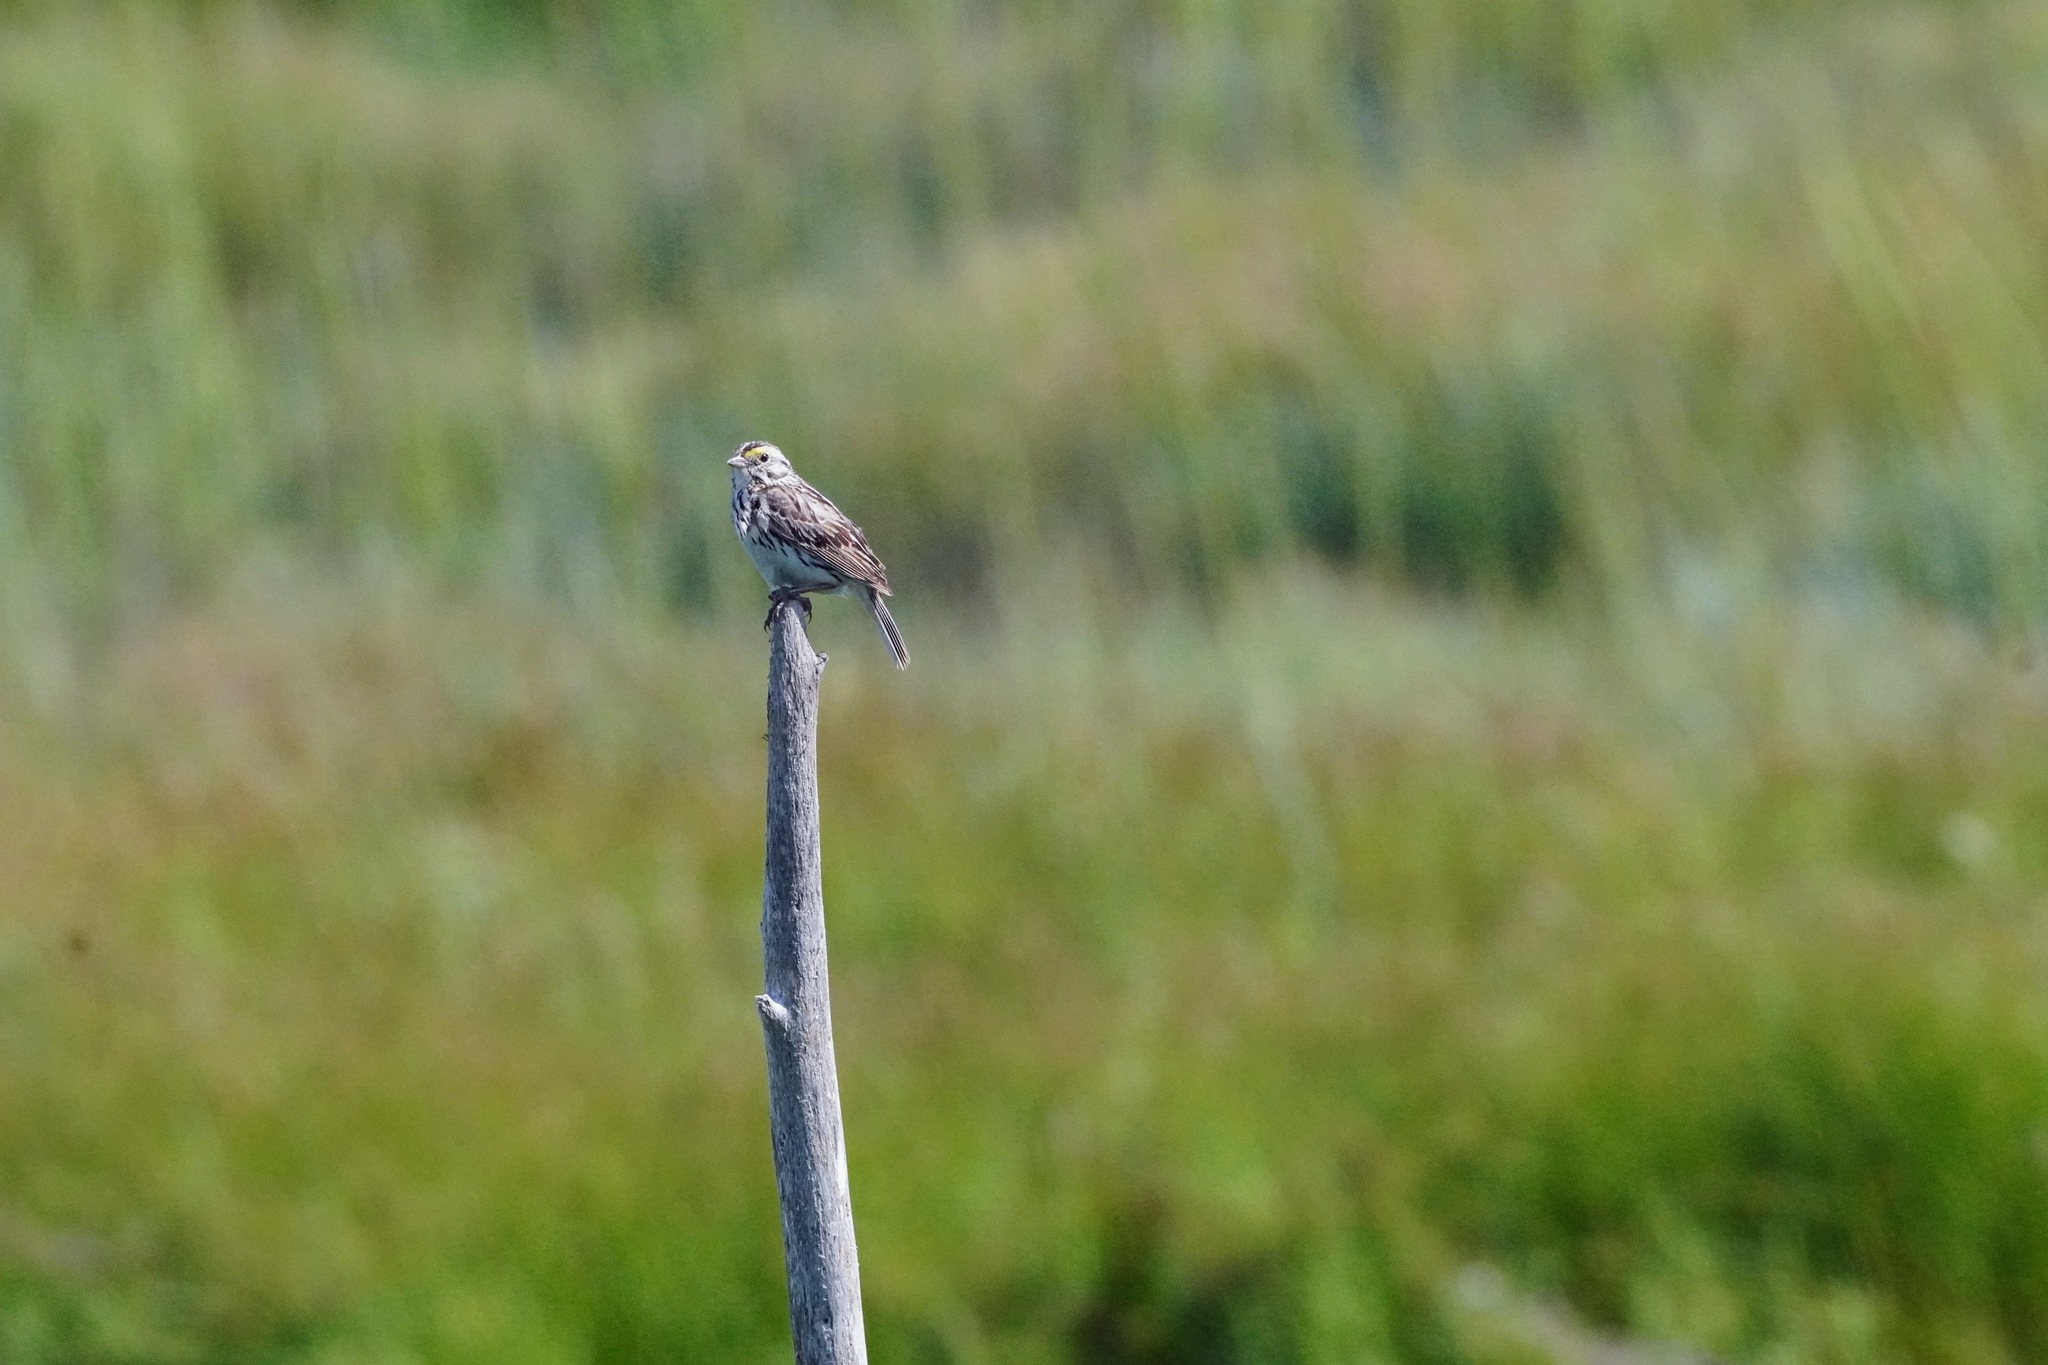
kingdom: Animalia
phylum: Chordata
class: Aves
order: Passeriformes
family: Passerellidae
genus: Passerculus
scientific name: Passerculus sandwichensis
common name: Savannah sparrow
